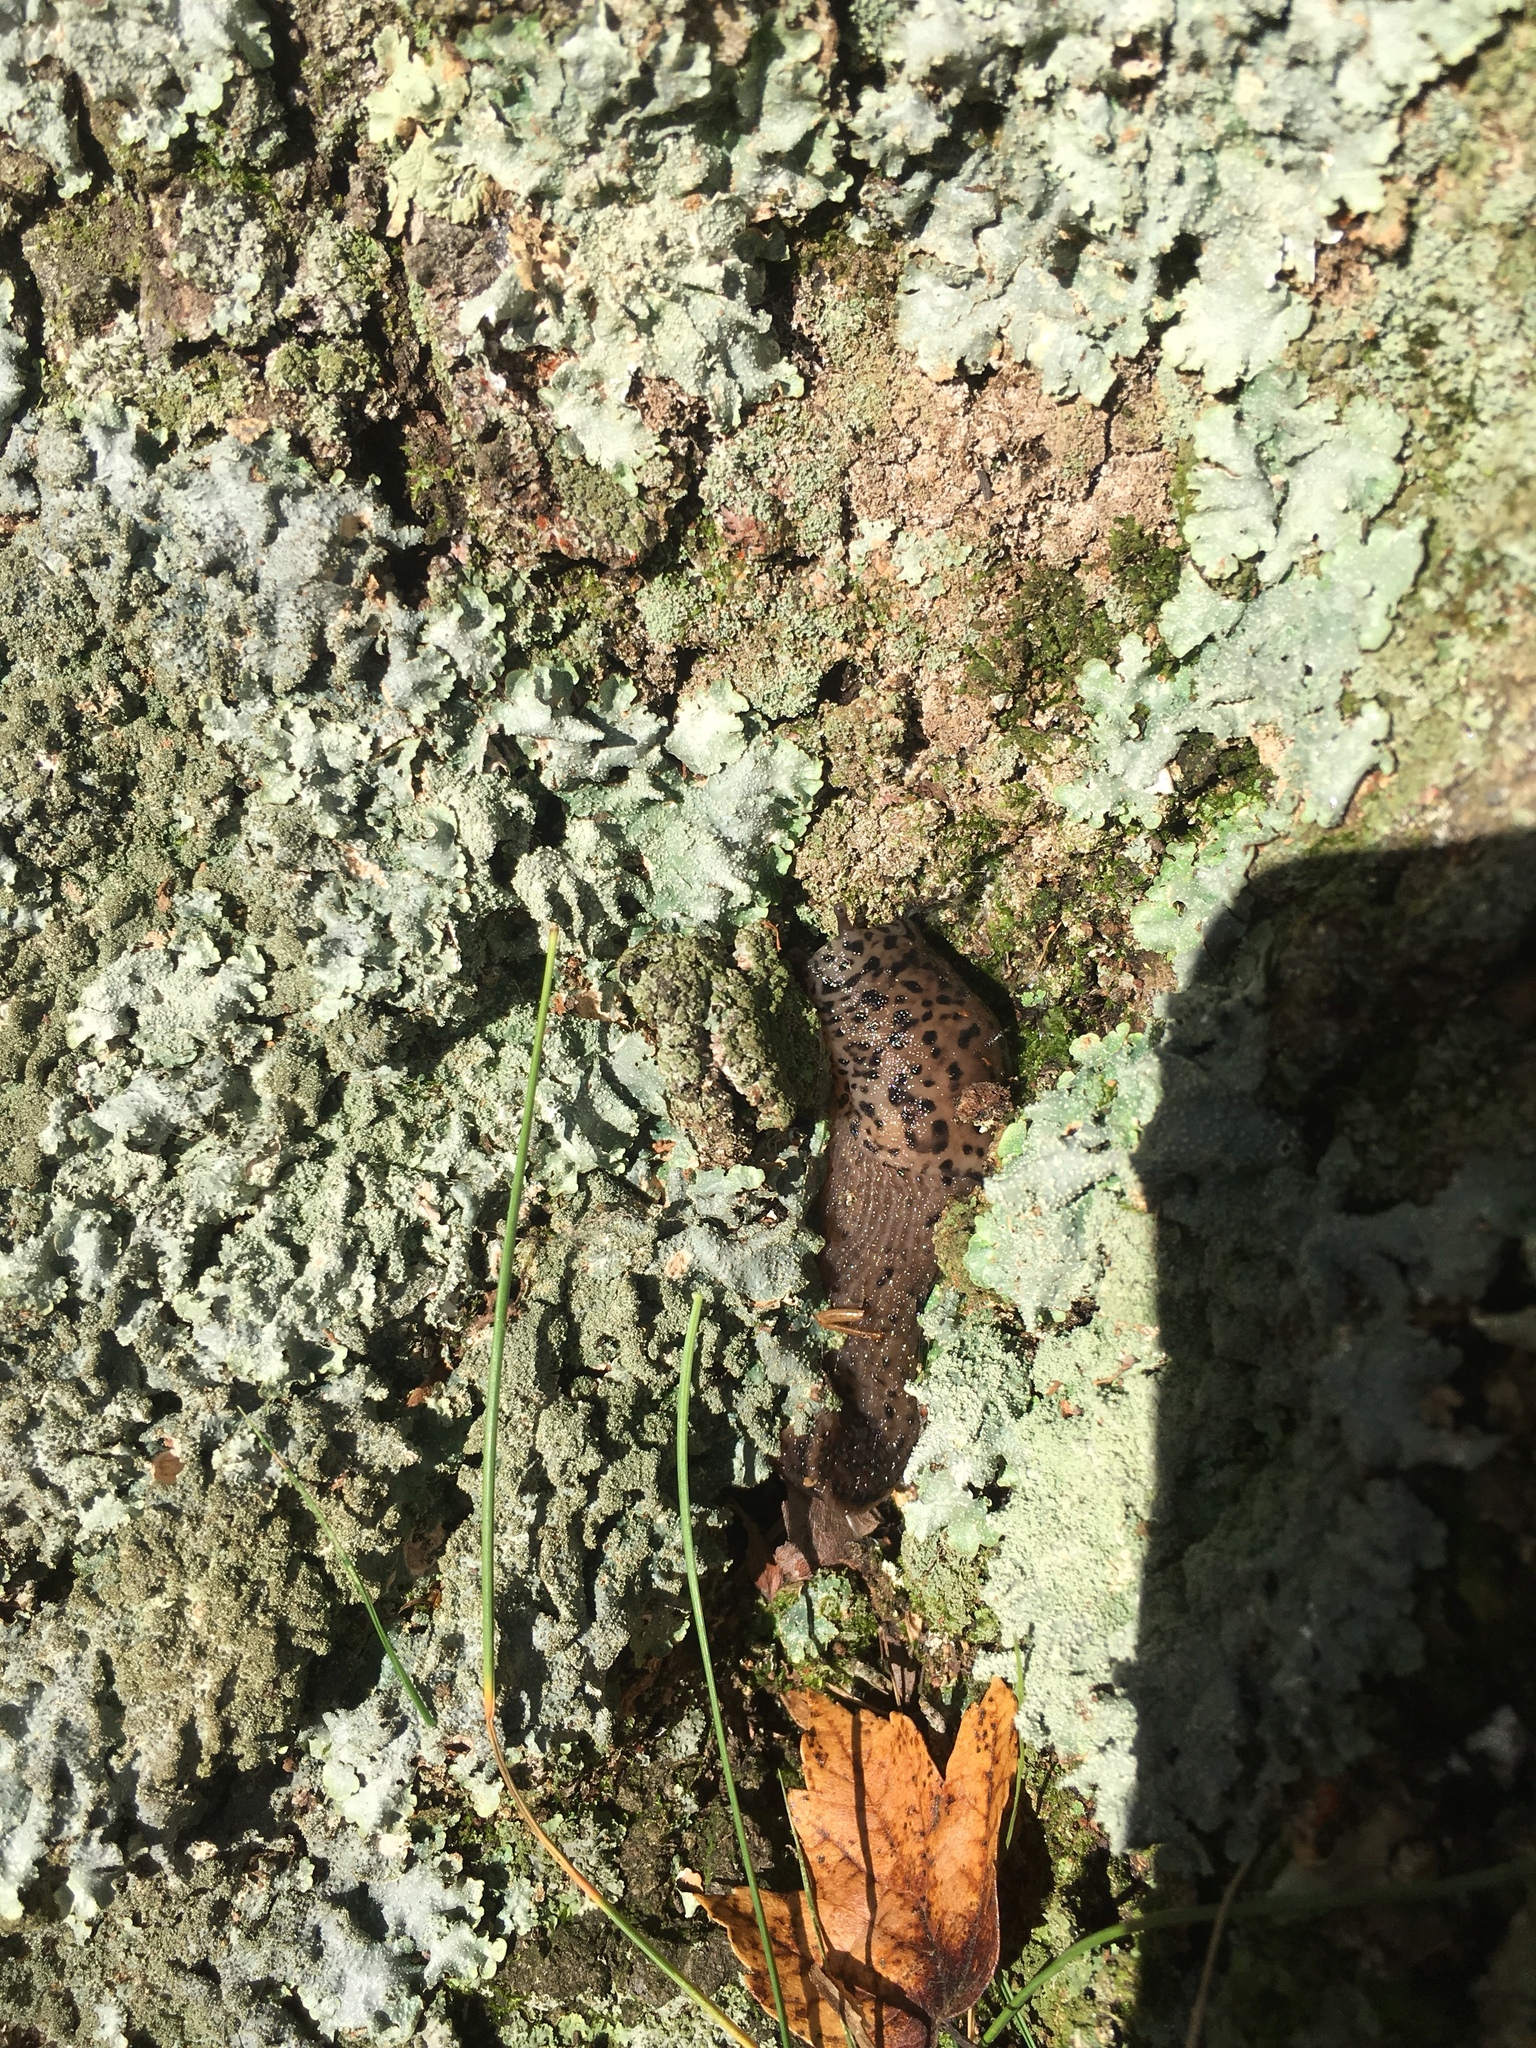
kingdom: Animalia
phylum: Mollusca
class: Gastropoda
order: Stylommatophora
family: Limacidae
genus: Limax
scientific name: Limax maximus
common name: Great grey slug
